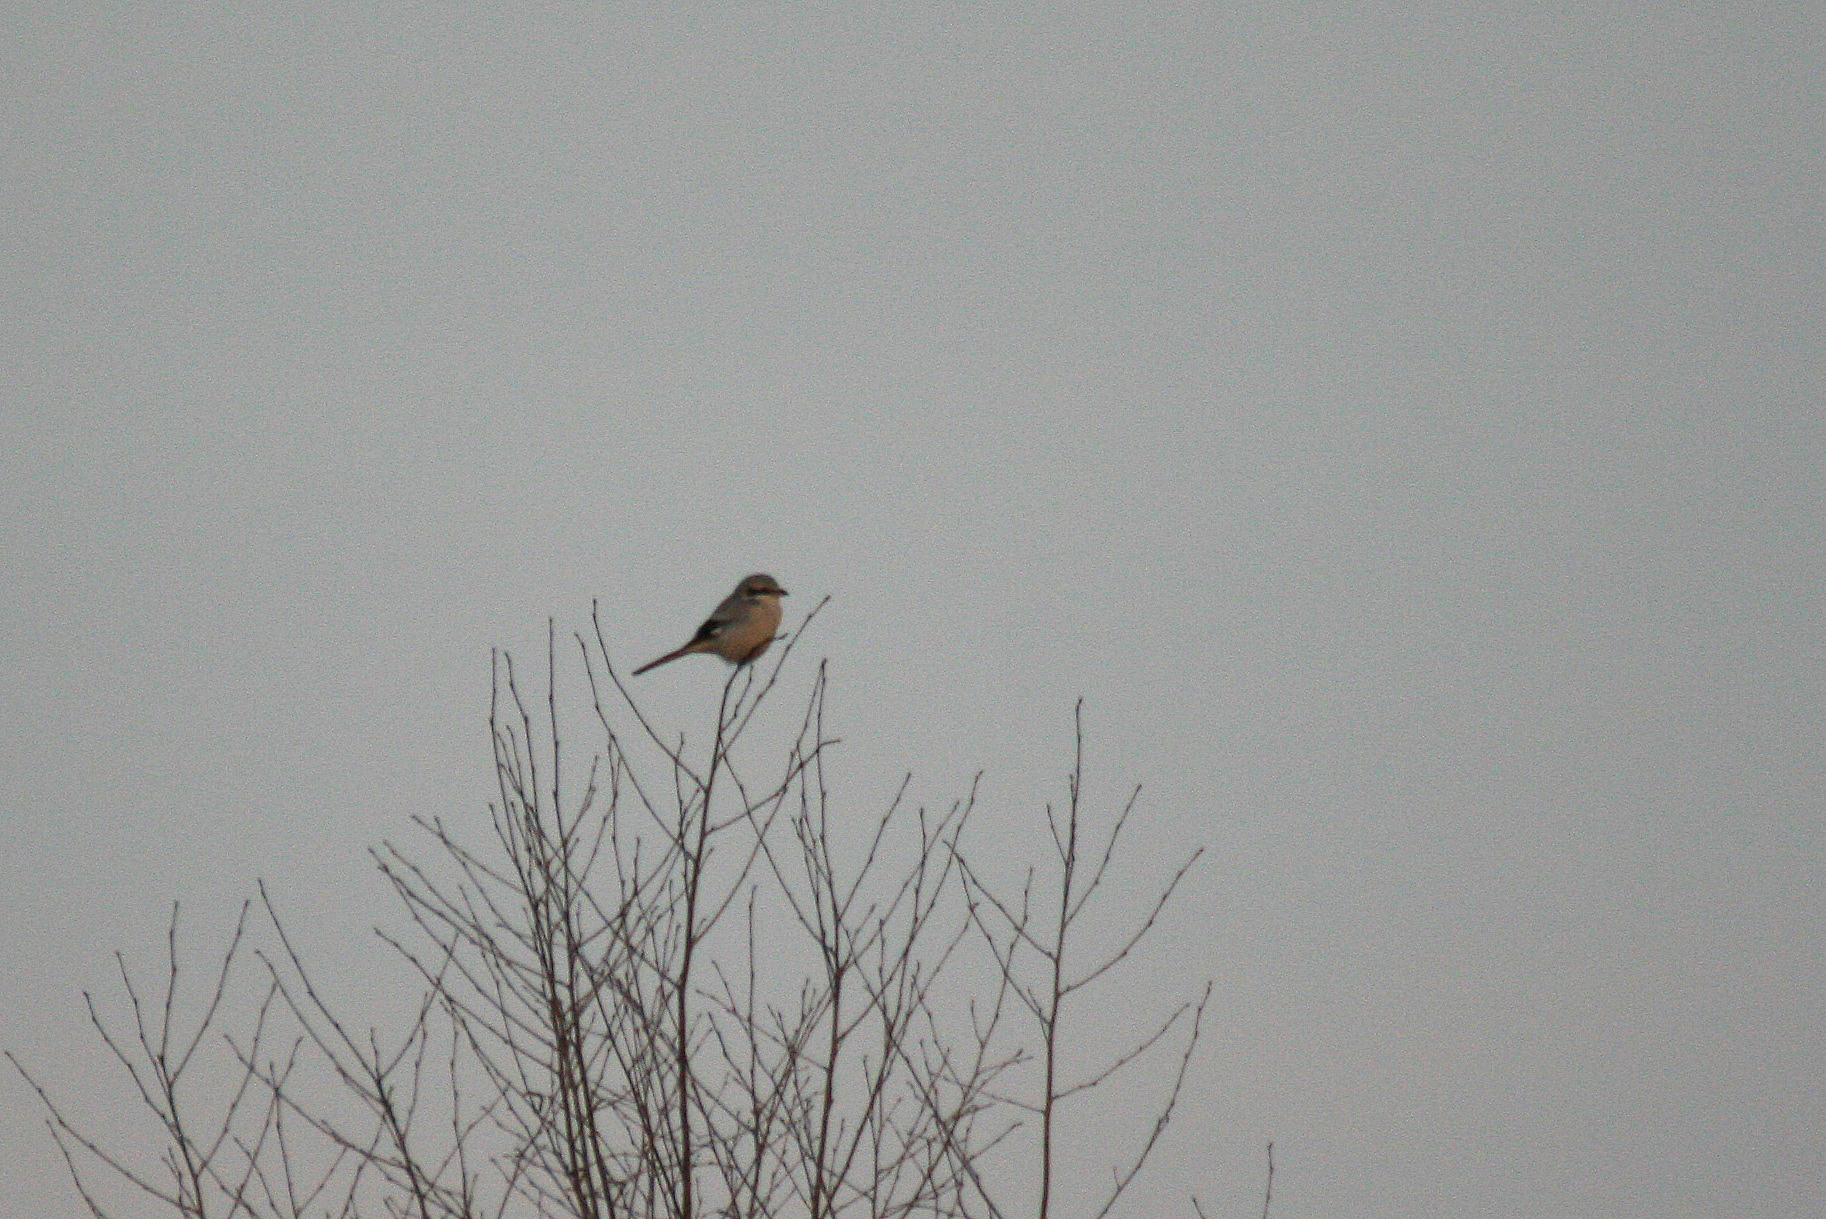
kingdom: Animalia
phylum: Chordata
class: Aves
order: Passeriformes
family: Laniidae
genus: Lanius
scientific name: Lanius excubitor
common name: Great grey shrike
